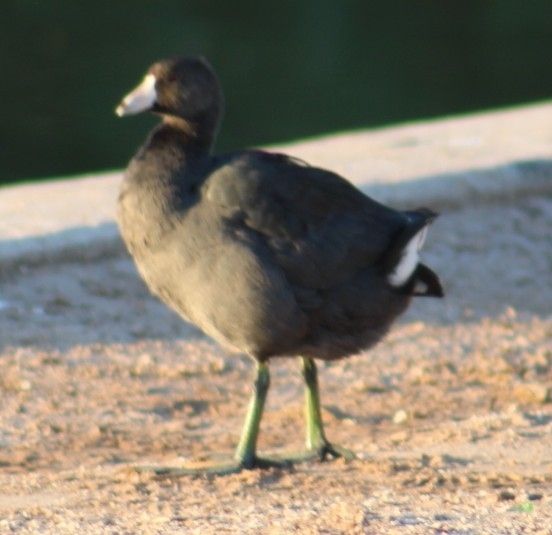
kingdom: Animalia
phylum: Chordata
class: Aves
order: Gruiformes
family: Rallidae
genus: Fulica
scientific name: Fulica americana
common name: American coot
